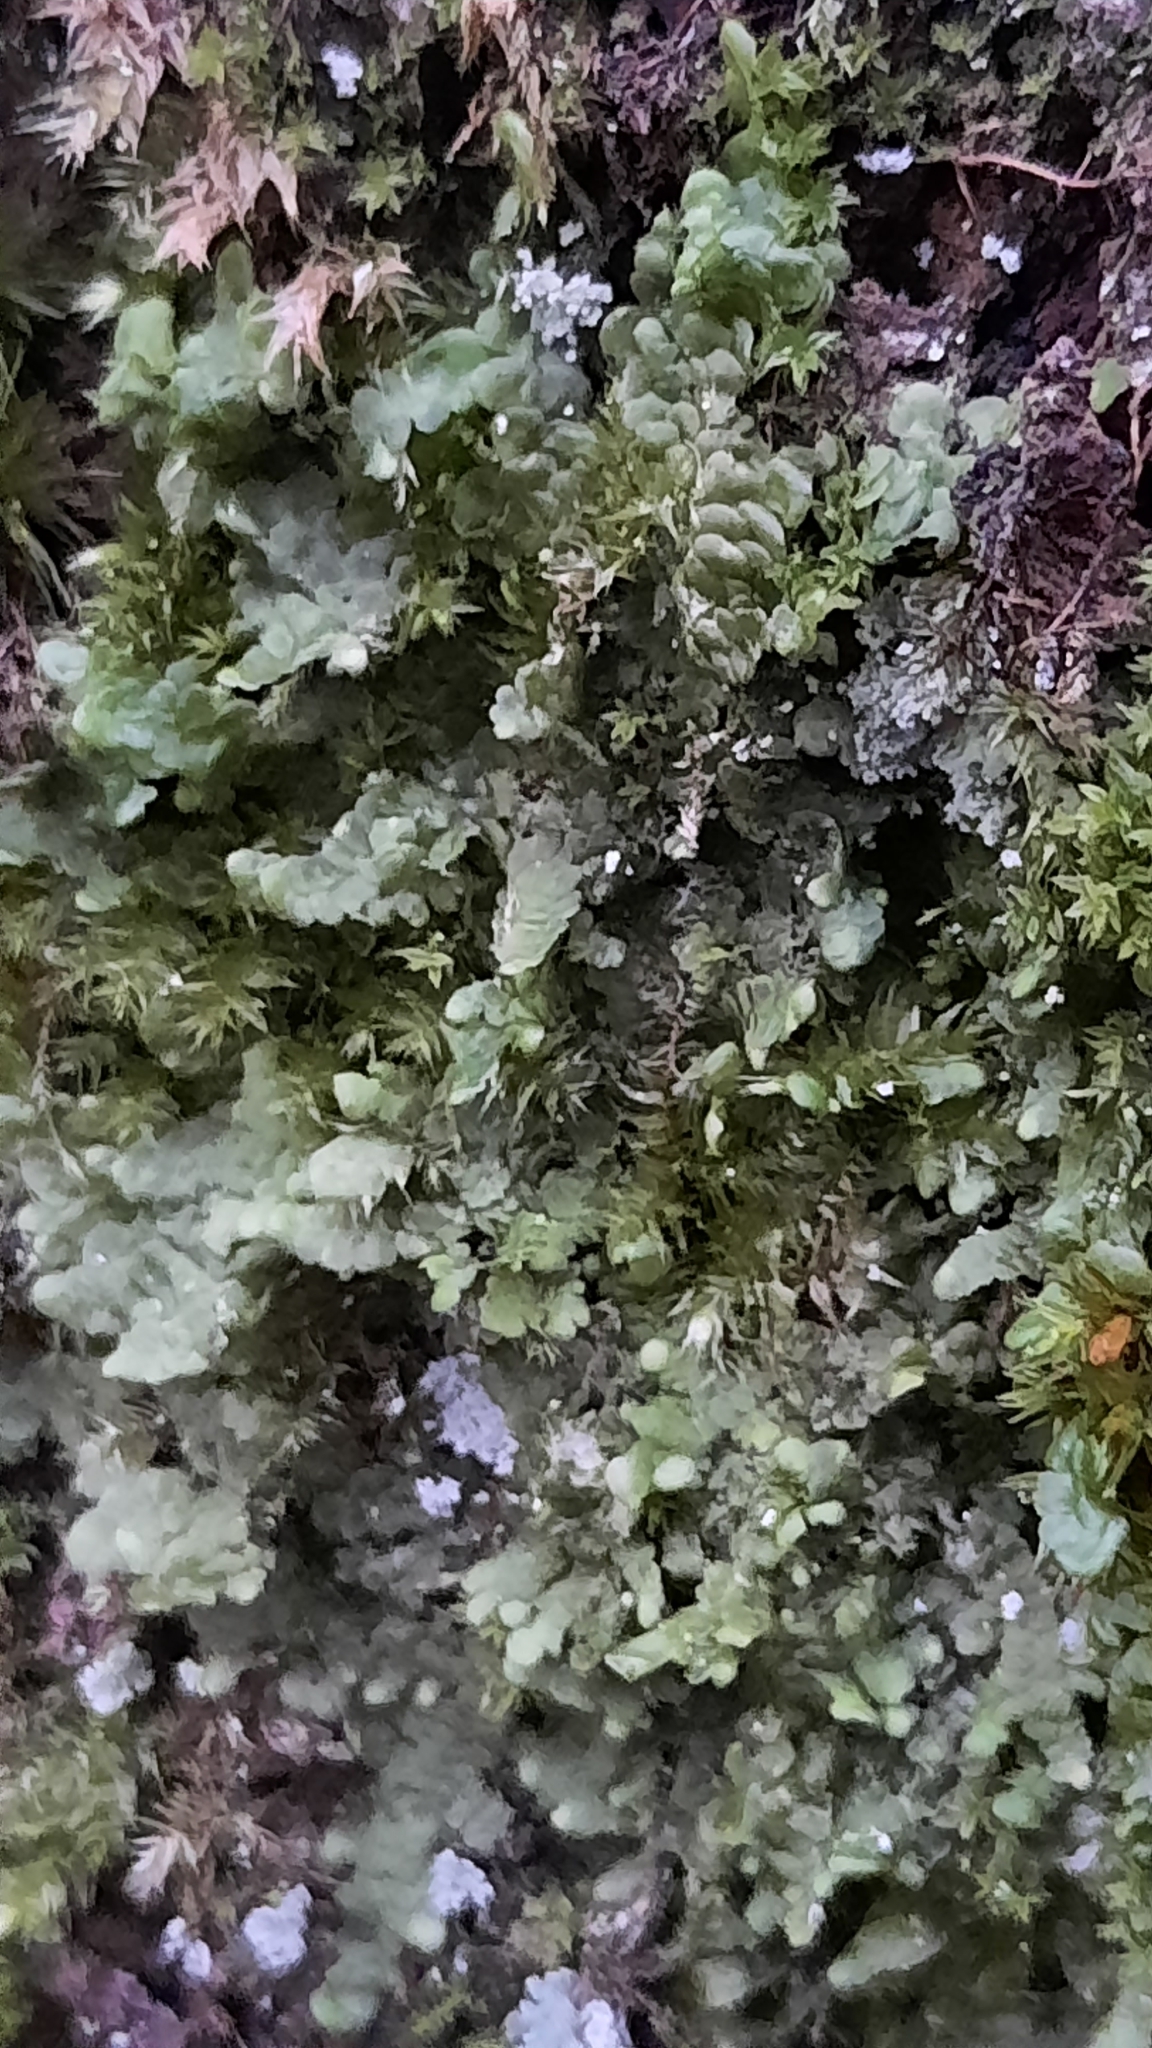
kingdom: Plantae
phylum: Marchantiophyta
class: Jungermanniopsida
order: Porellales
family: Radulaceae
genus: Radula
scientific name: Radula complanata
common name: Flat-leaved scalewort
